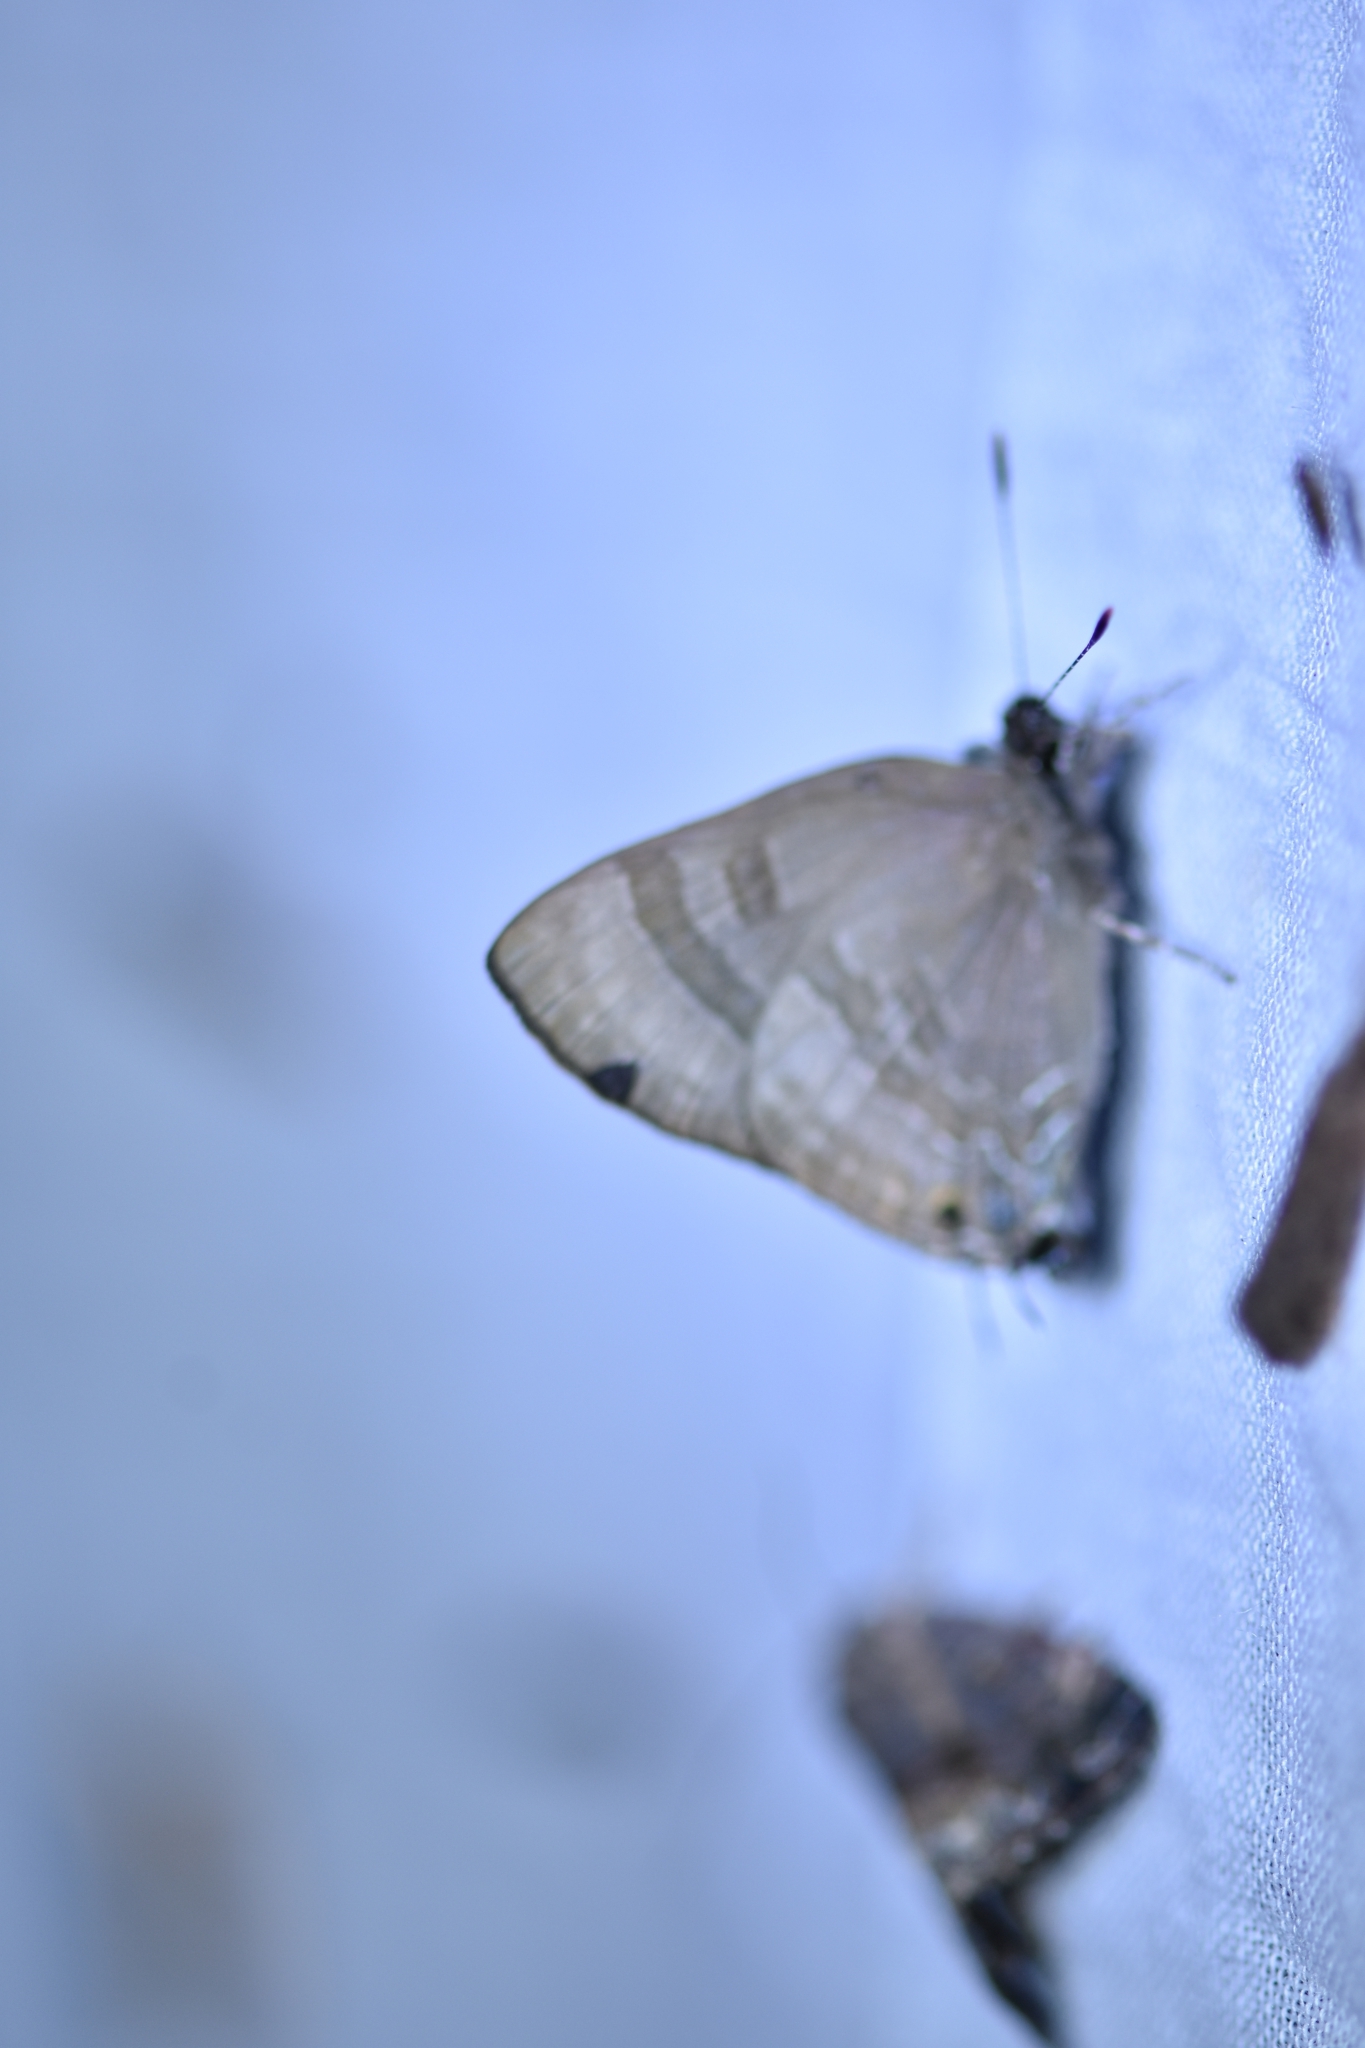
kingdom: Animalia
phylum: Arthropoda
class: Insecta
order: Lepidoptera
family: Lycaenidae
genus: Rapala
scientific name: Rapala manea
